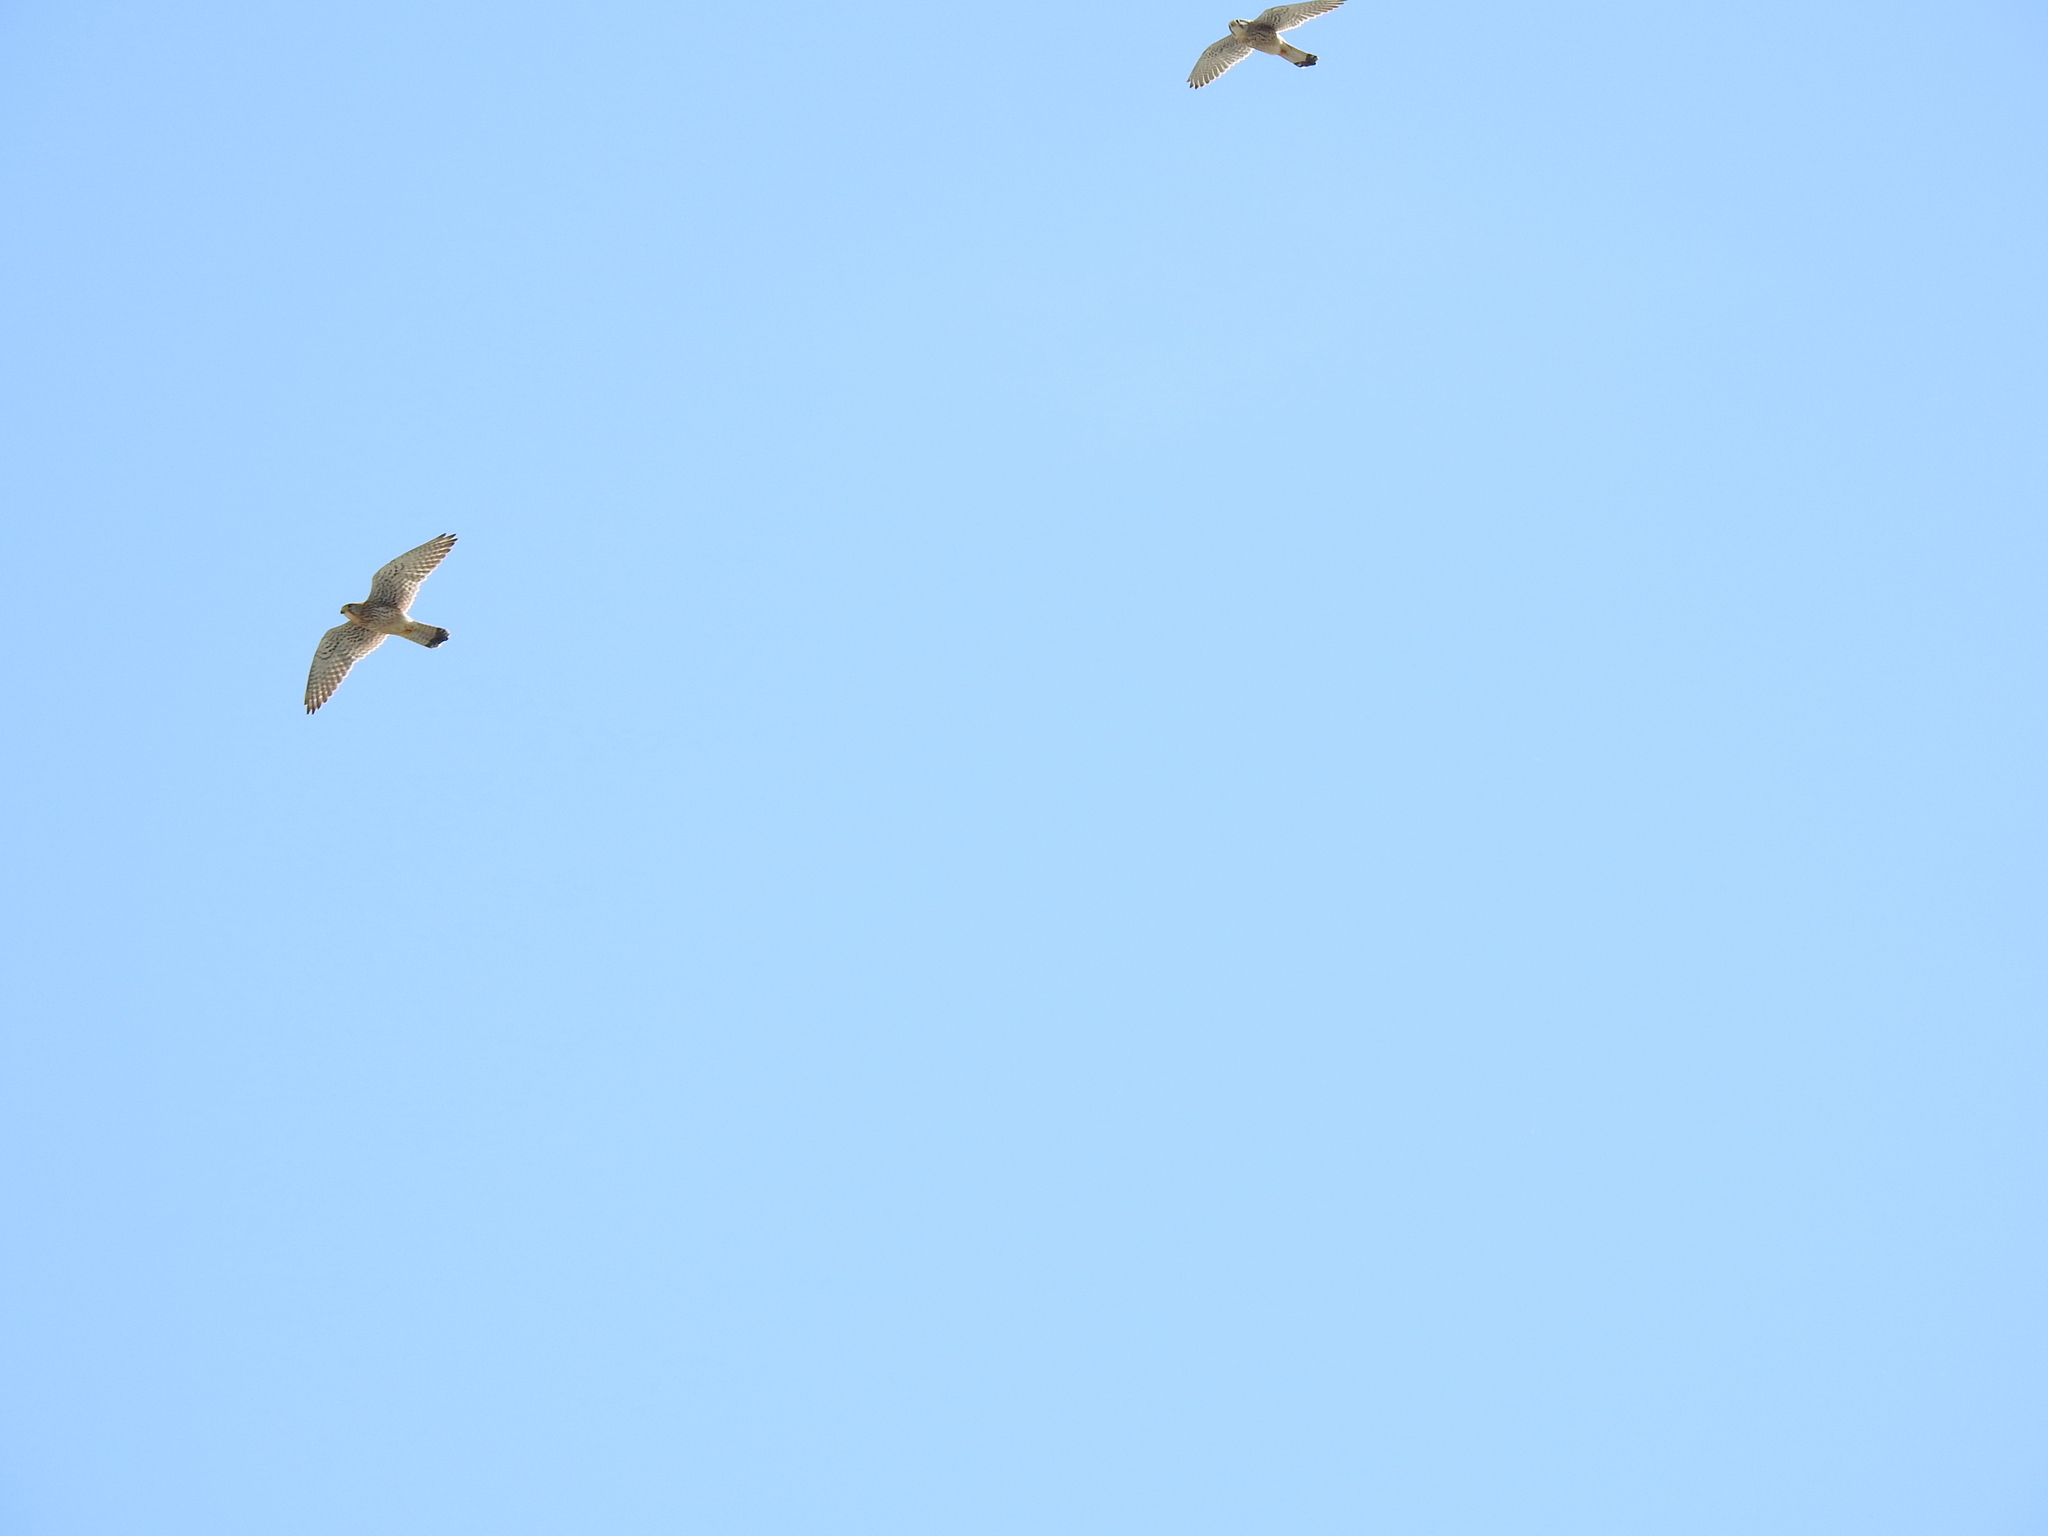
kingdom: Animalia
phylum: Chordata
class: Aves
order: Falconiformes
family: Falconidae
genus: Falco
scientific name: Falco tinnunculus
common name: Common kestrel
